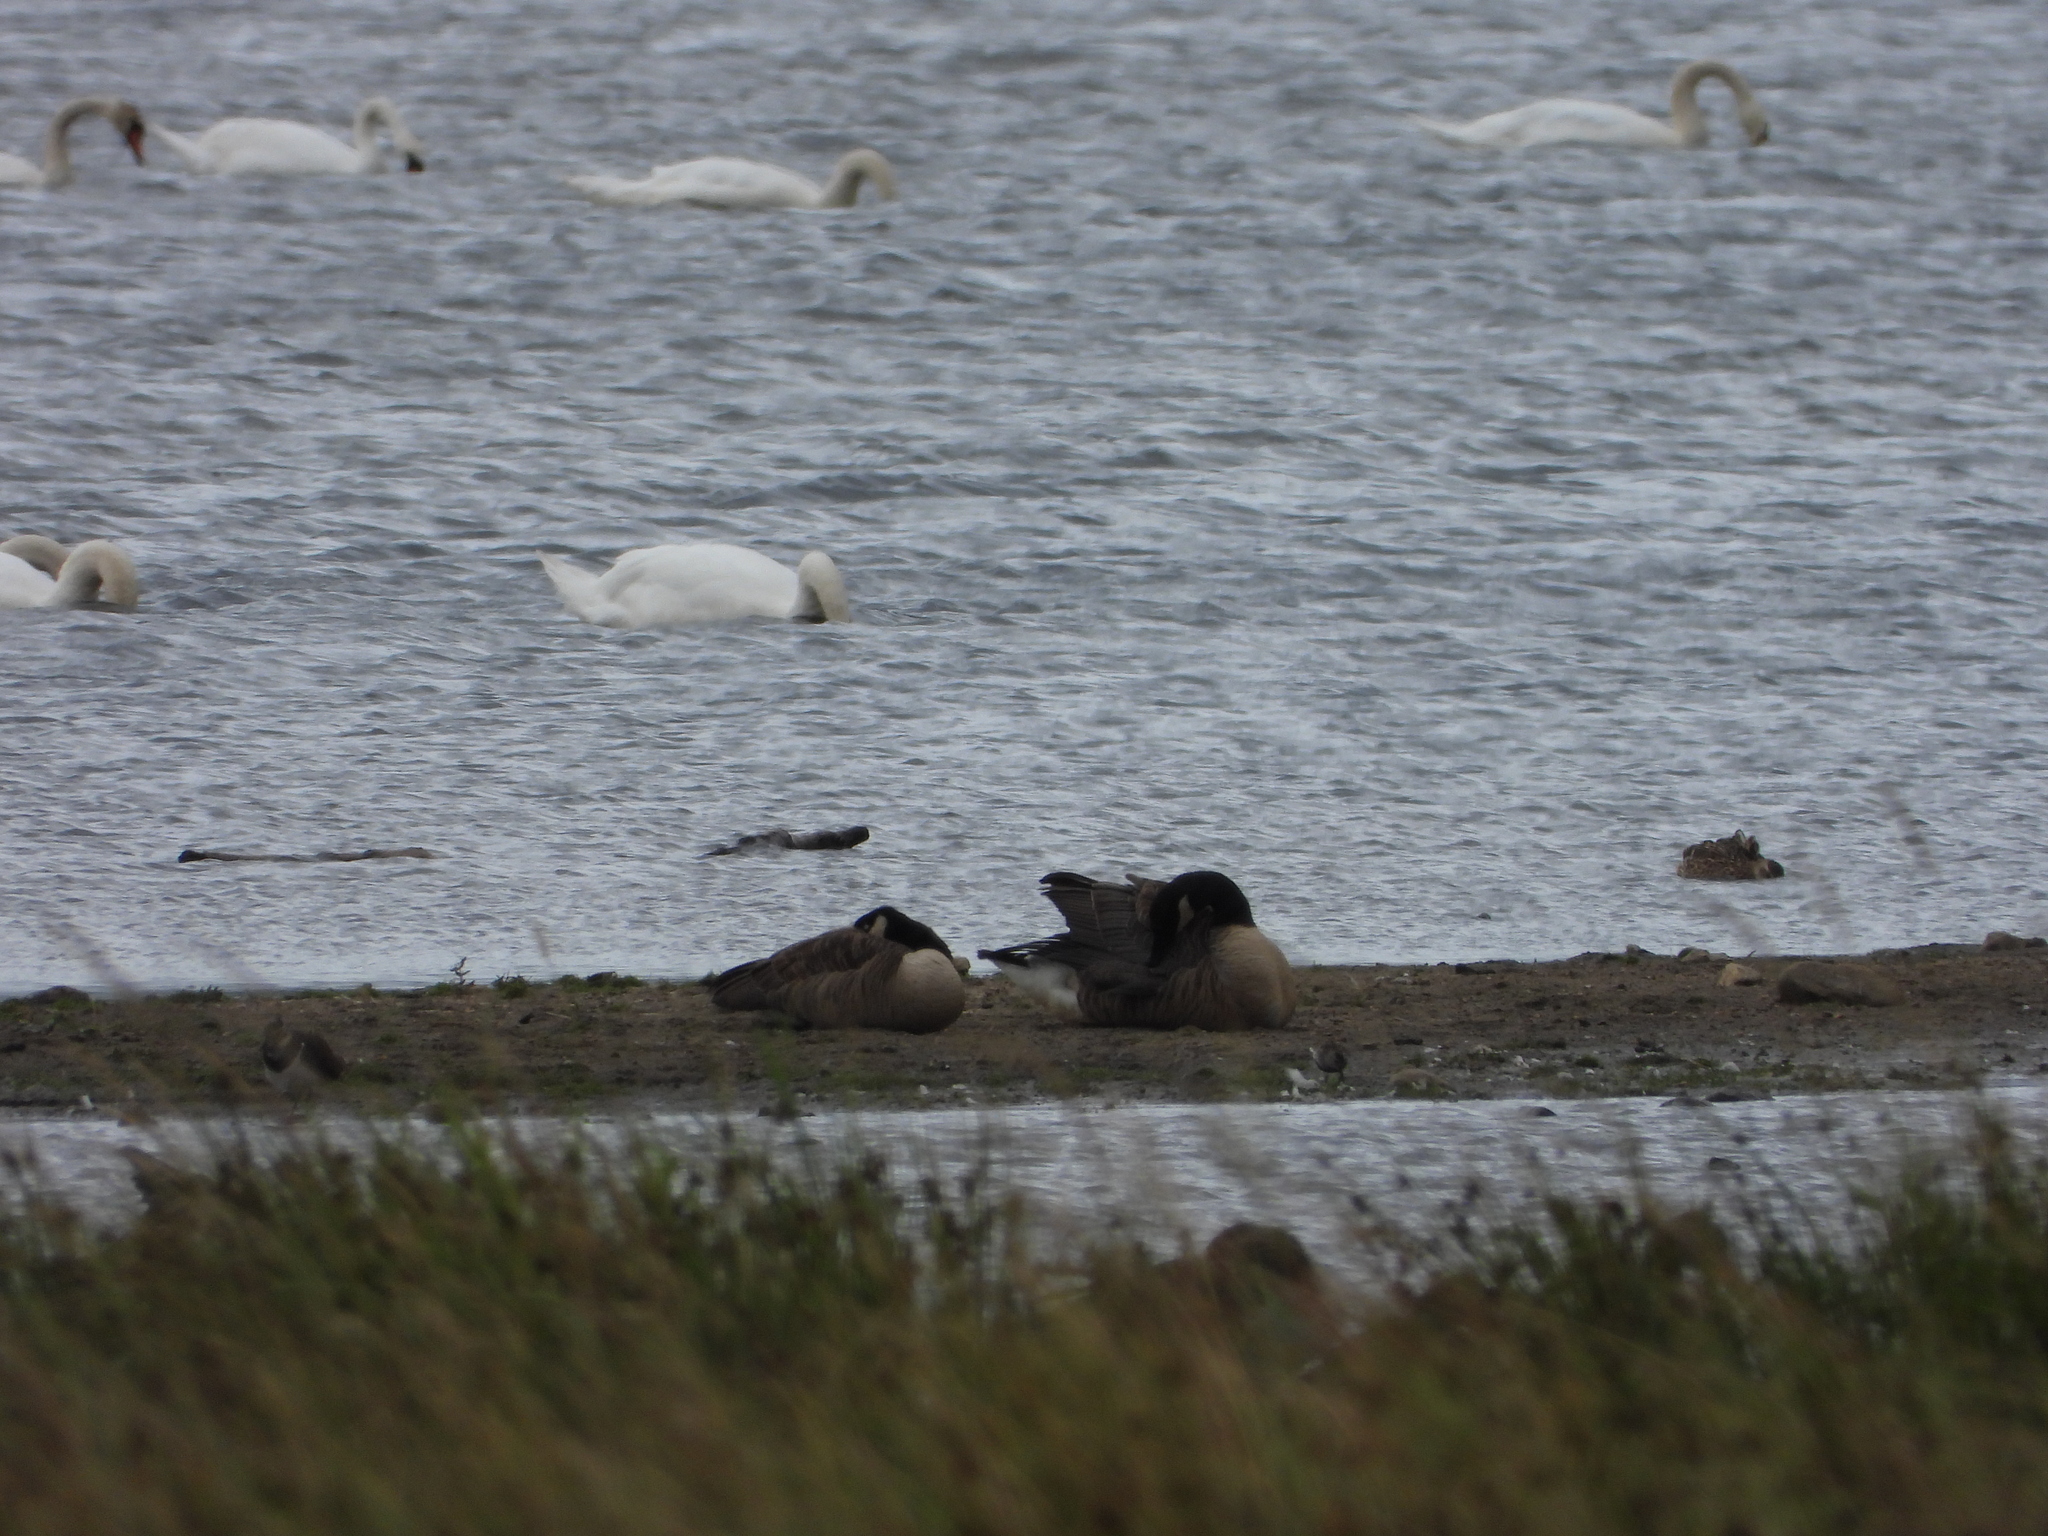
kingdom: Animalia
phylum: Chordata
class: Aves
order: Anseriformes
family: Anatidae
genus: Branta
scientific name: Branta canadensis
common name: Canada goose
